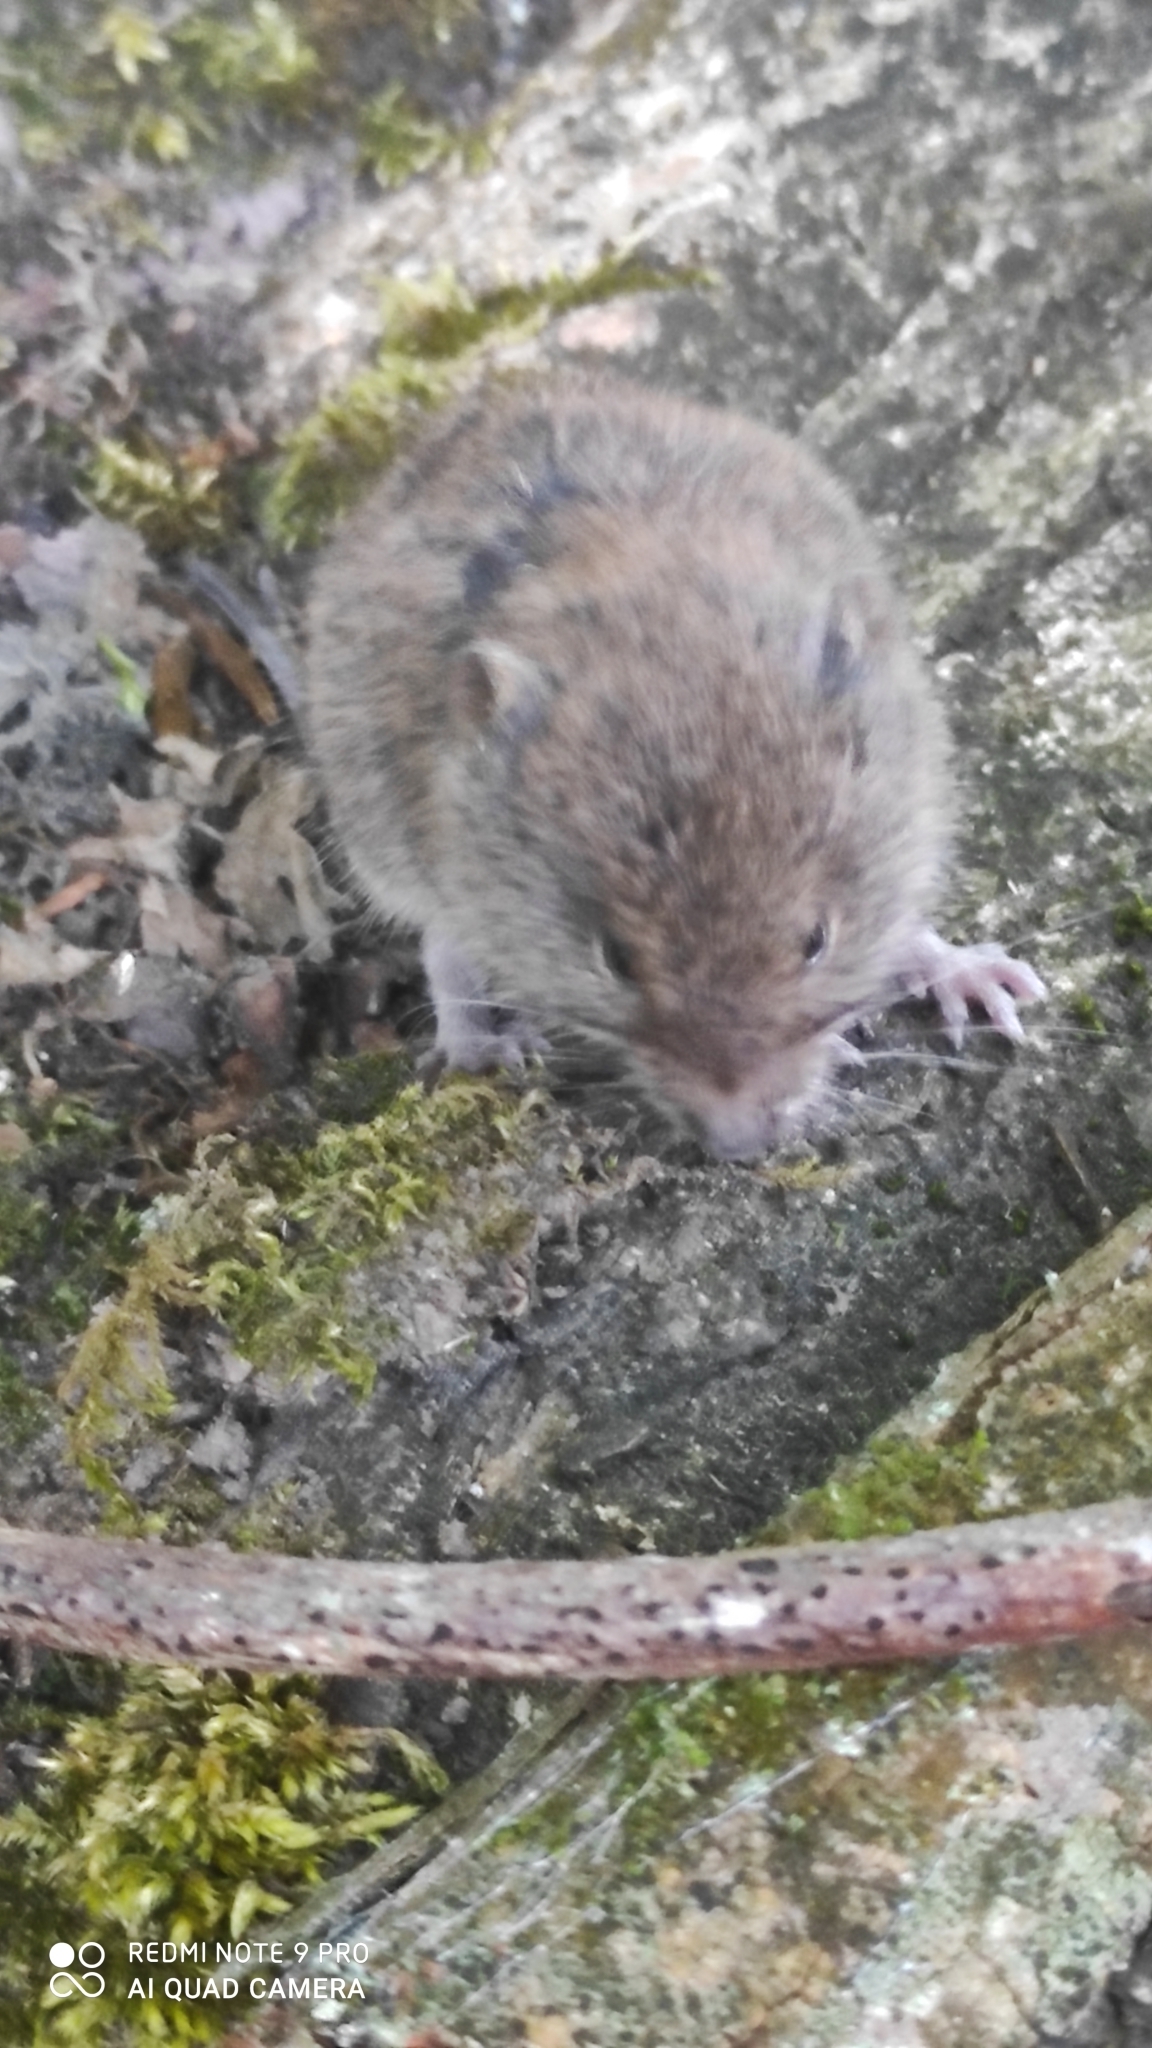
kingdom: Animalia
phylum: Chordata
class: Mammalia
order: Rodentia
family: Cricetidae
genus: Myodes
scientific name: Myodes glareolus
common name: Bank vole
